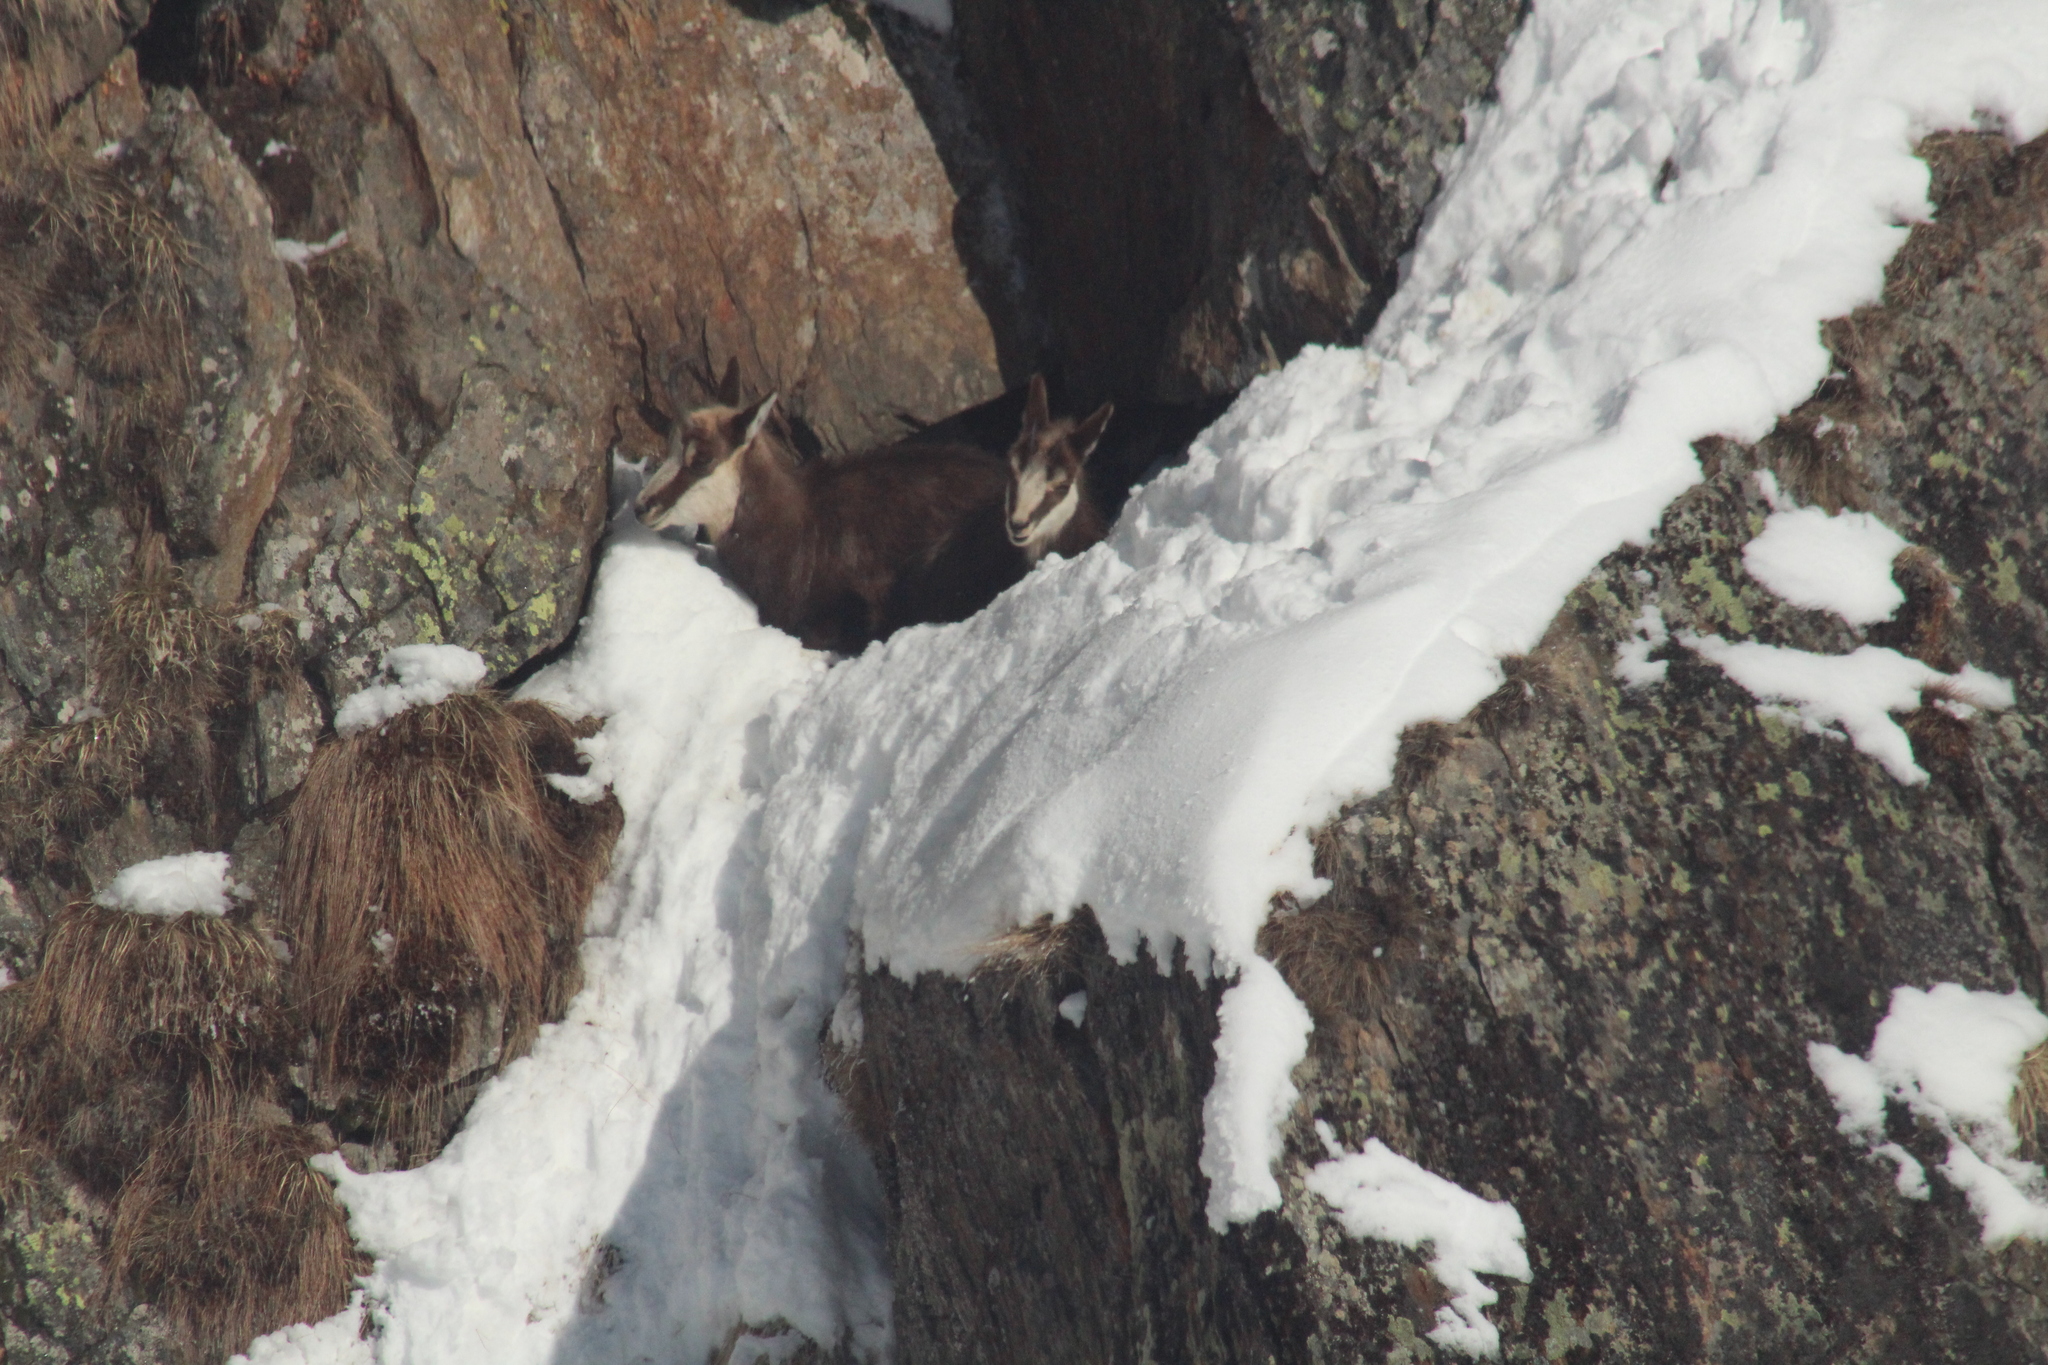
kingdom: Animalia
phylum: Chordata
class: Mammalia
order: Artiodactyla
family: Bovidae
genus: Rupicapra
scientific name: Rupicapra rupicapra
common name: Chamois
